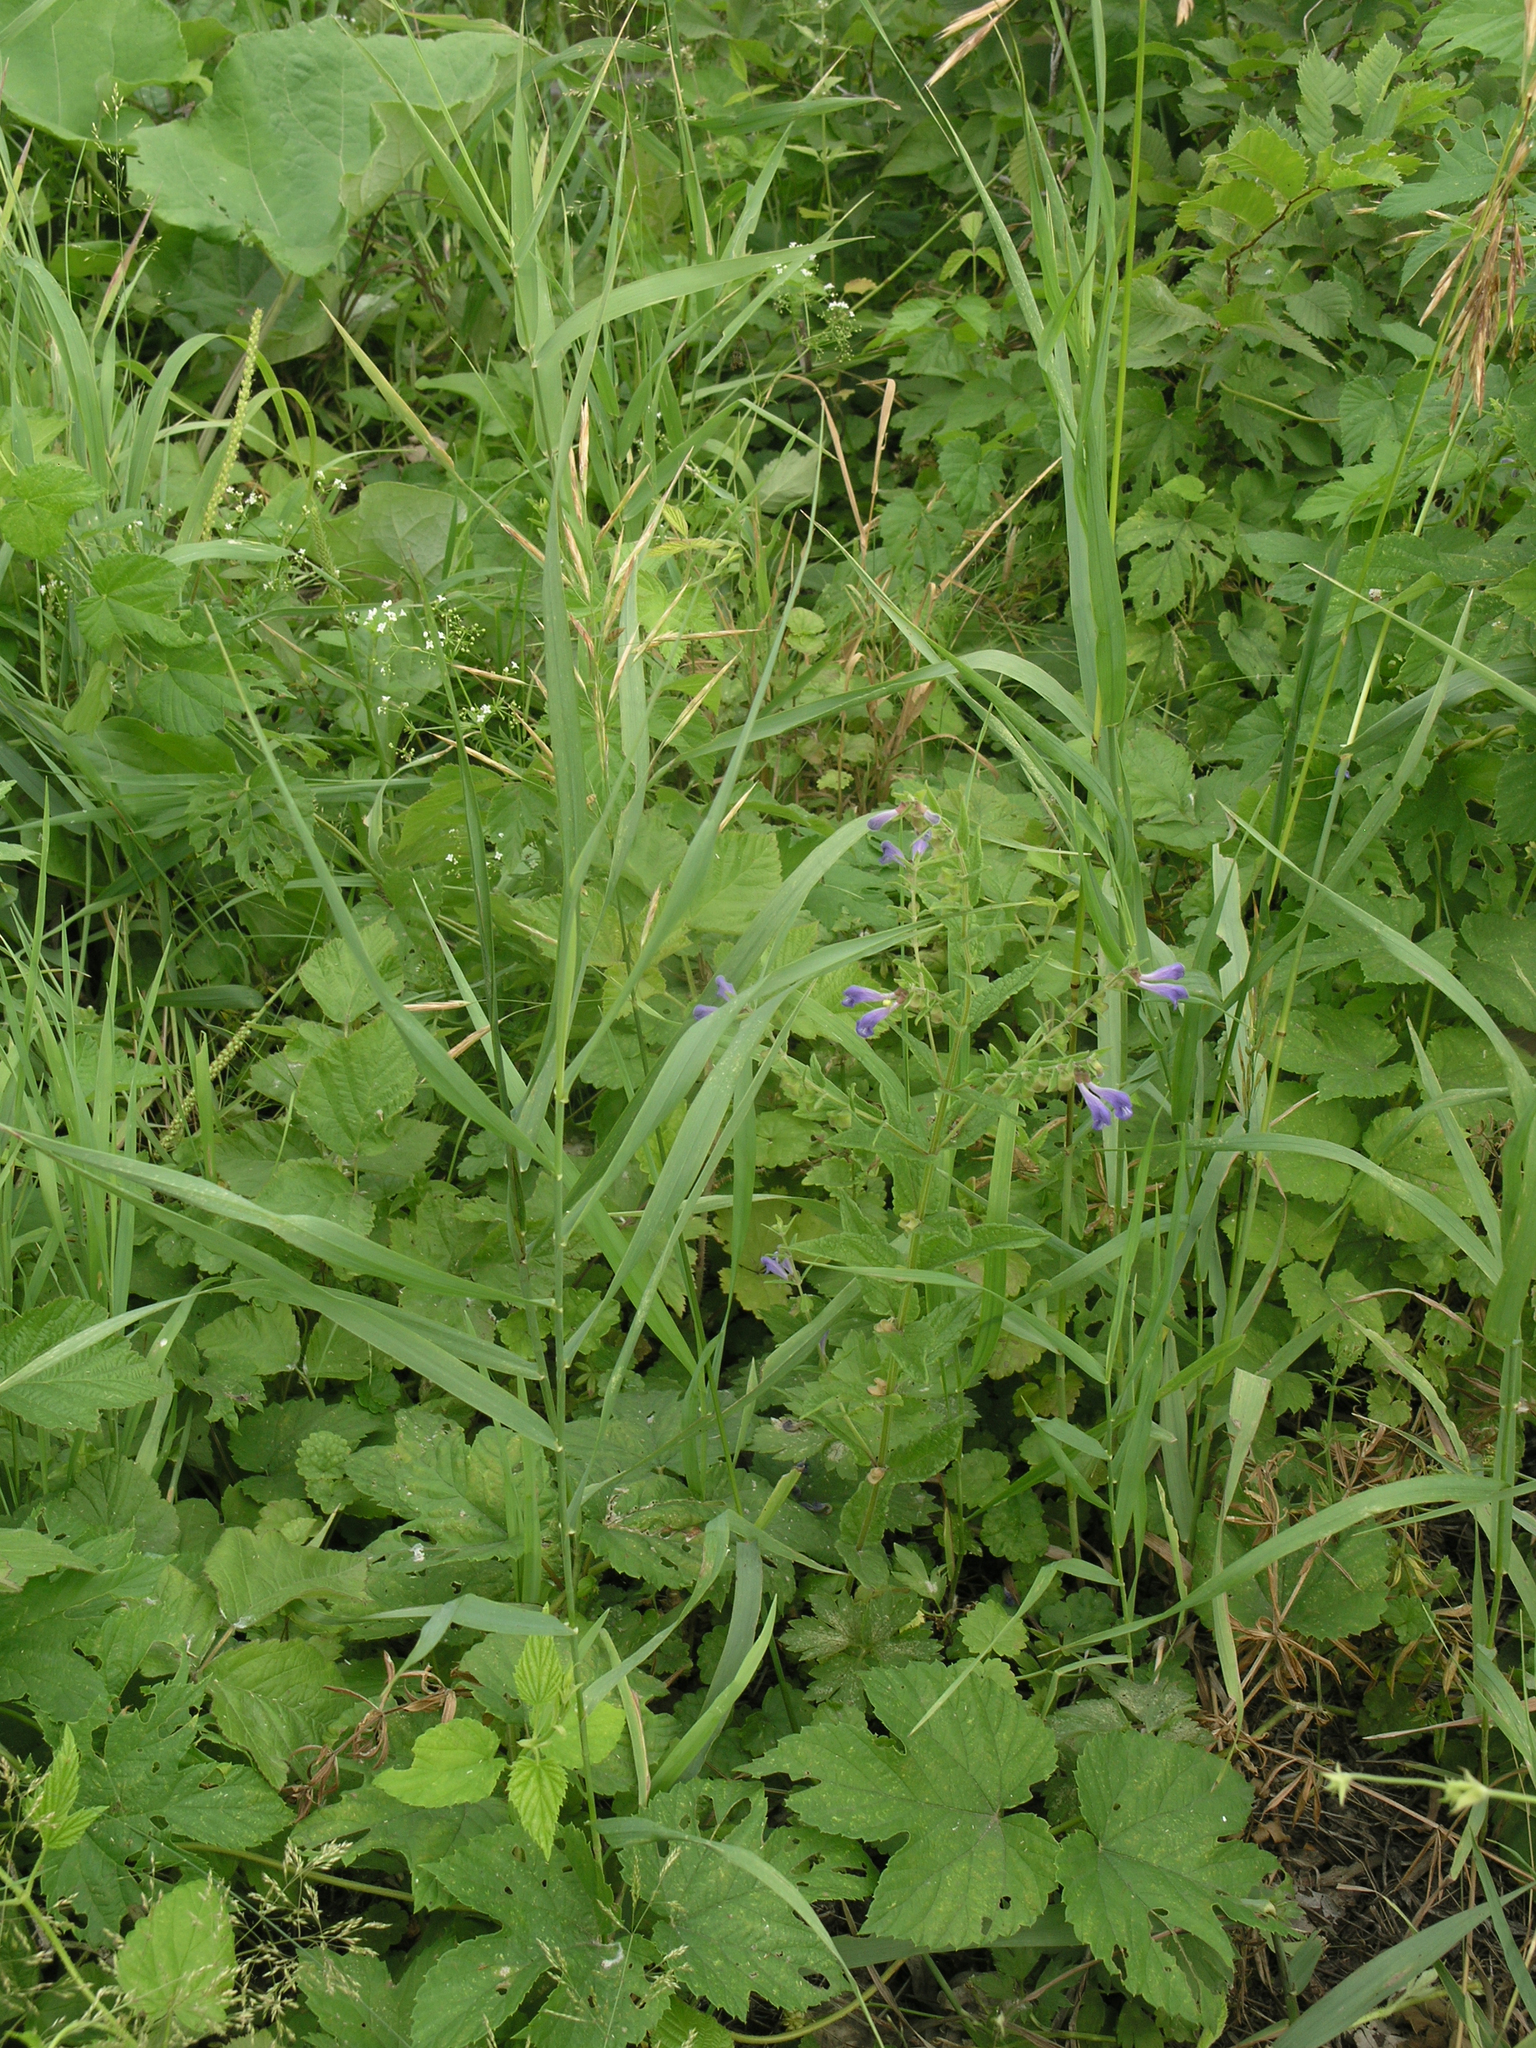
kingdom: Plantae
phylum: Tracheophyta
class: Magnoliopsida
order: Lamiales
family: Lamiaceae
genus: Scutellaria
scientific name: Scutellaria galericulata
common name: Skullcap
